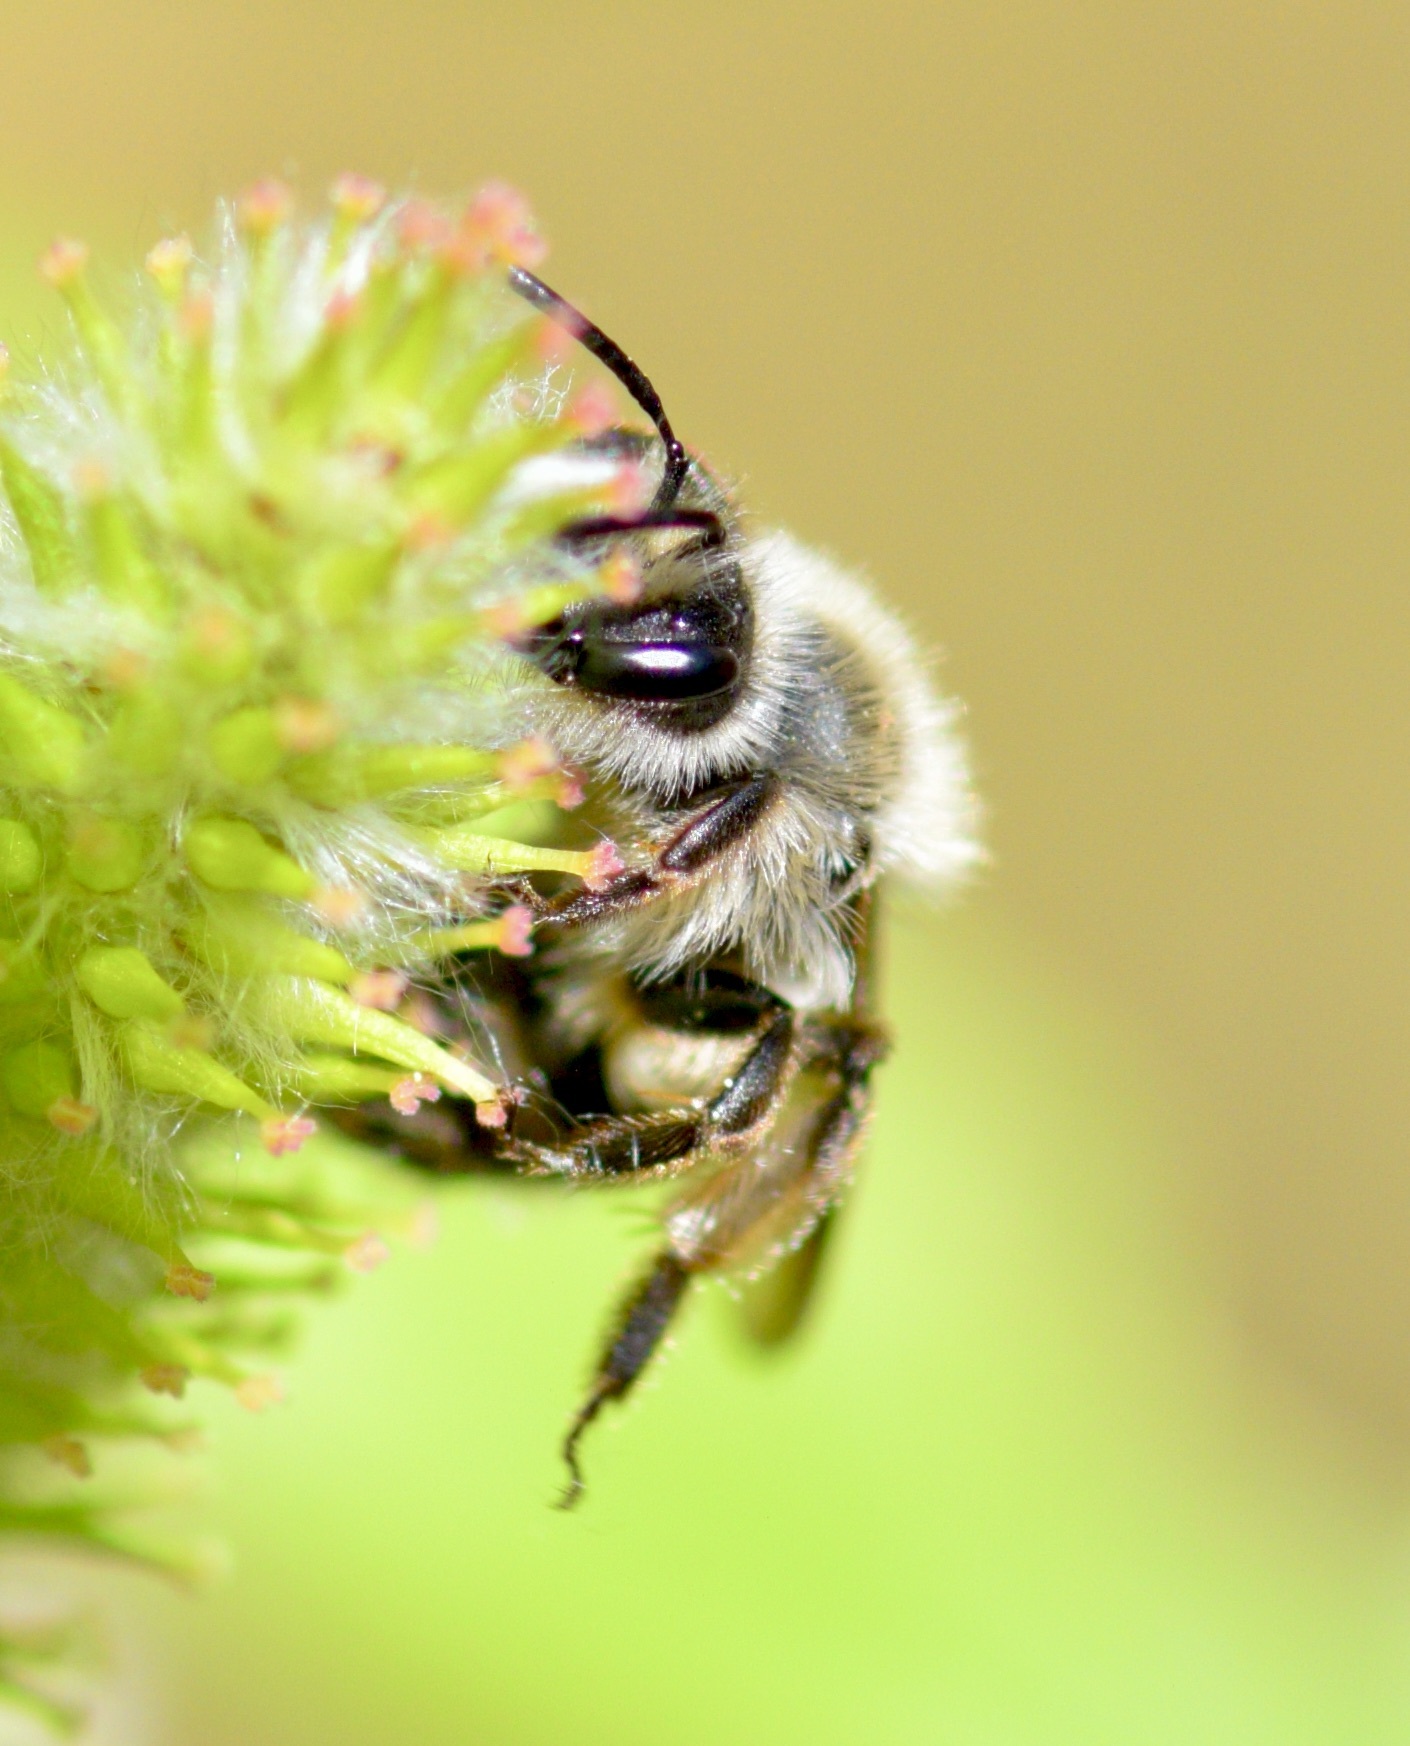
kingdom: Animalia
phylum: Arthropoda
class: Insecta
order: Hymenoptera
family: Andrenidae
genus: Andrena
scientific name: Andrena frigida
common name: Frigid mining bee
